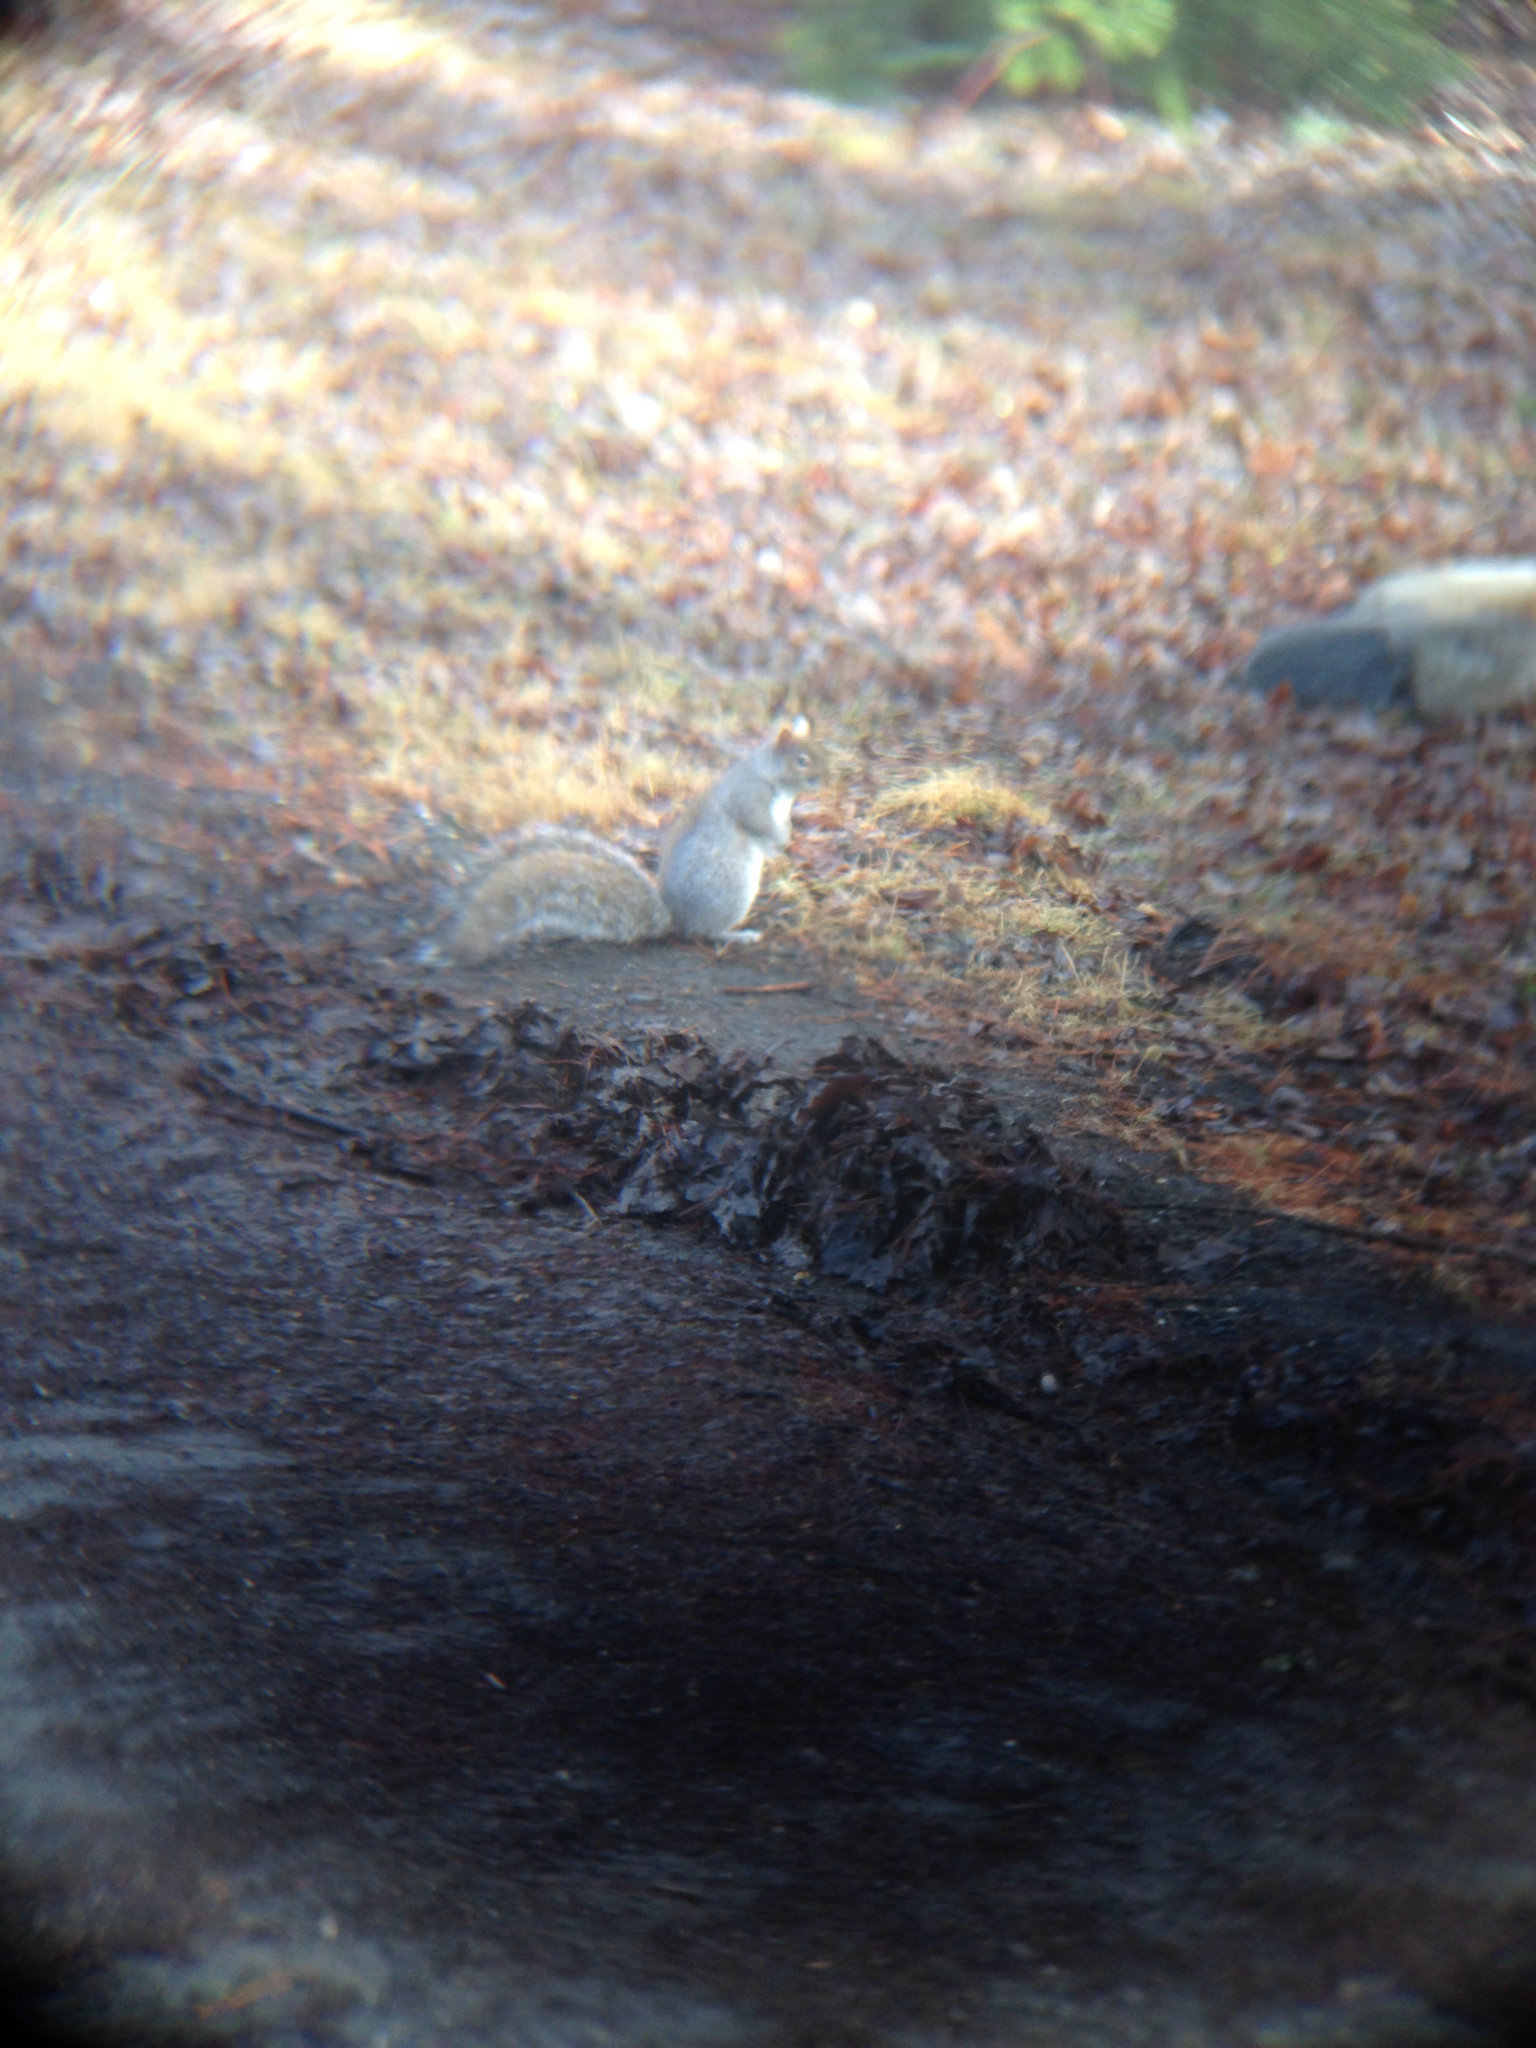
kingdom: Animalia
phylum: Chordata
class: Mammalia
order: Rodentia
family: Sciuridae
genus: Sciurus
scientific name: Sciurus carolinensis
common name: Eastern gray squirrel
